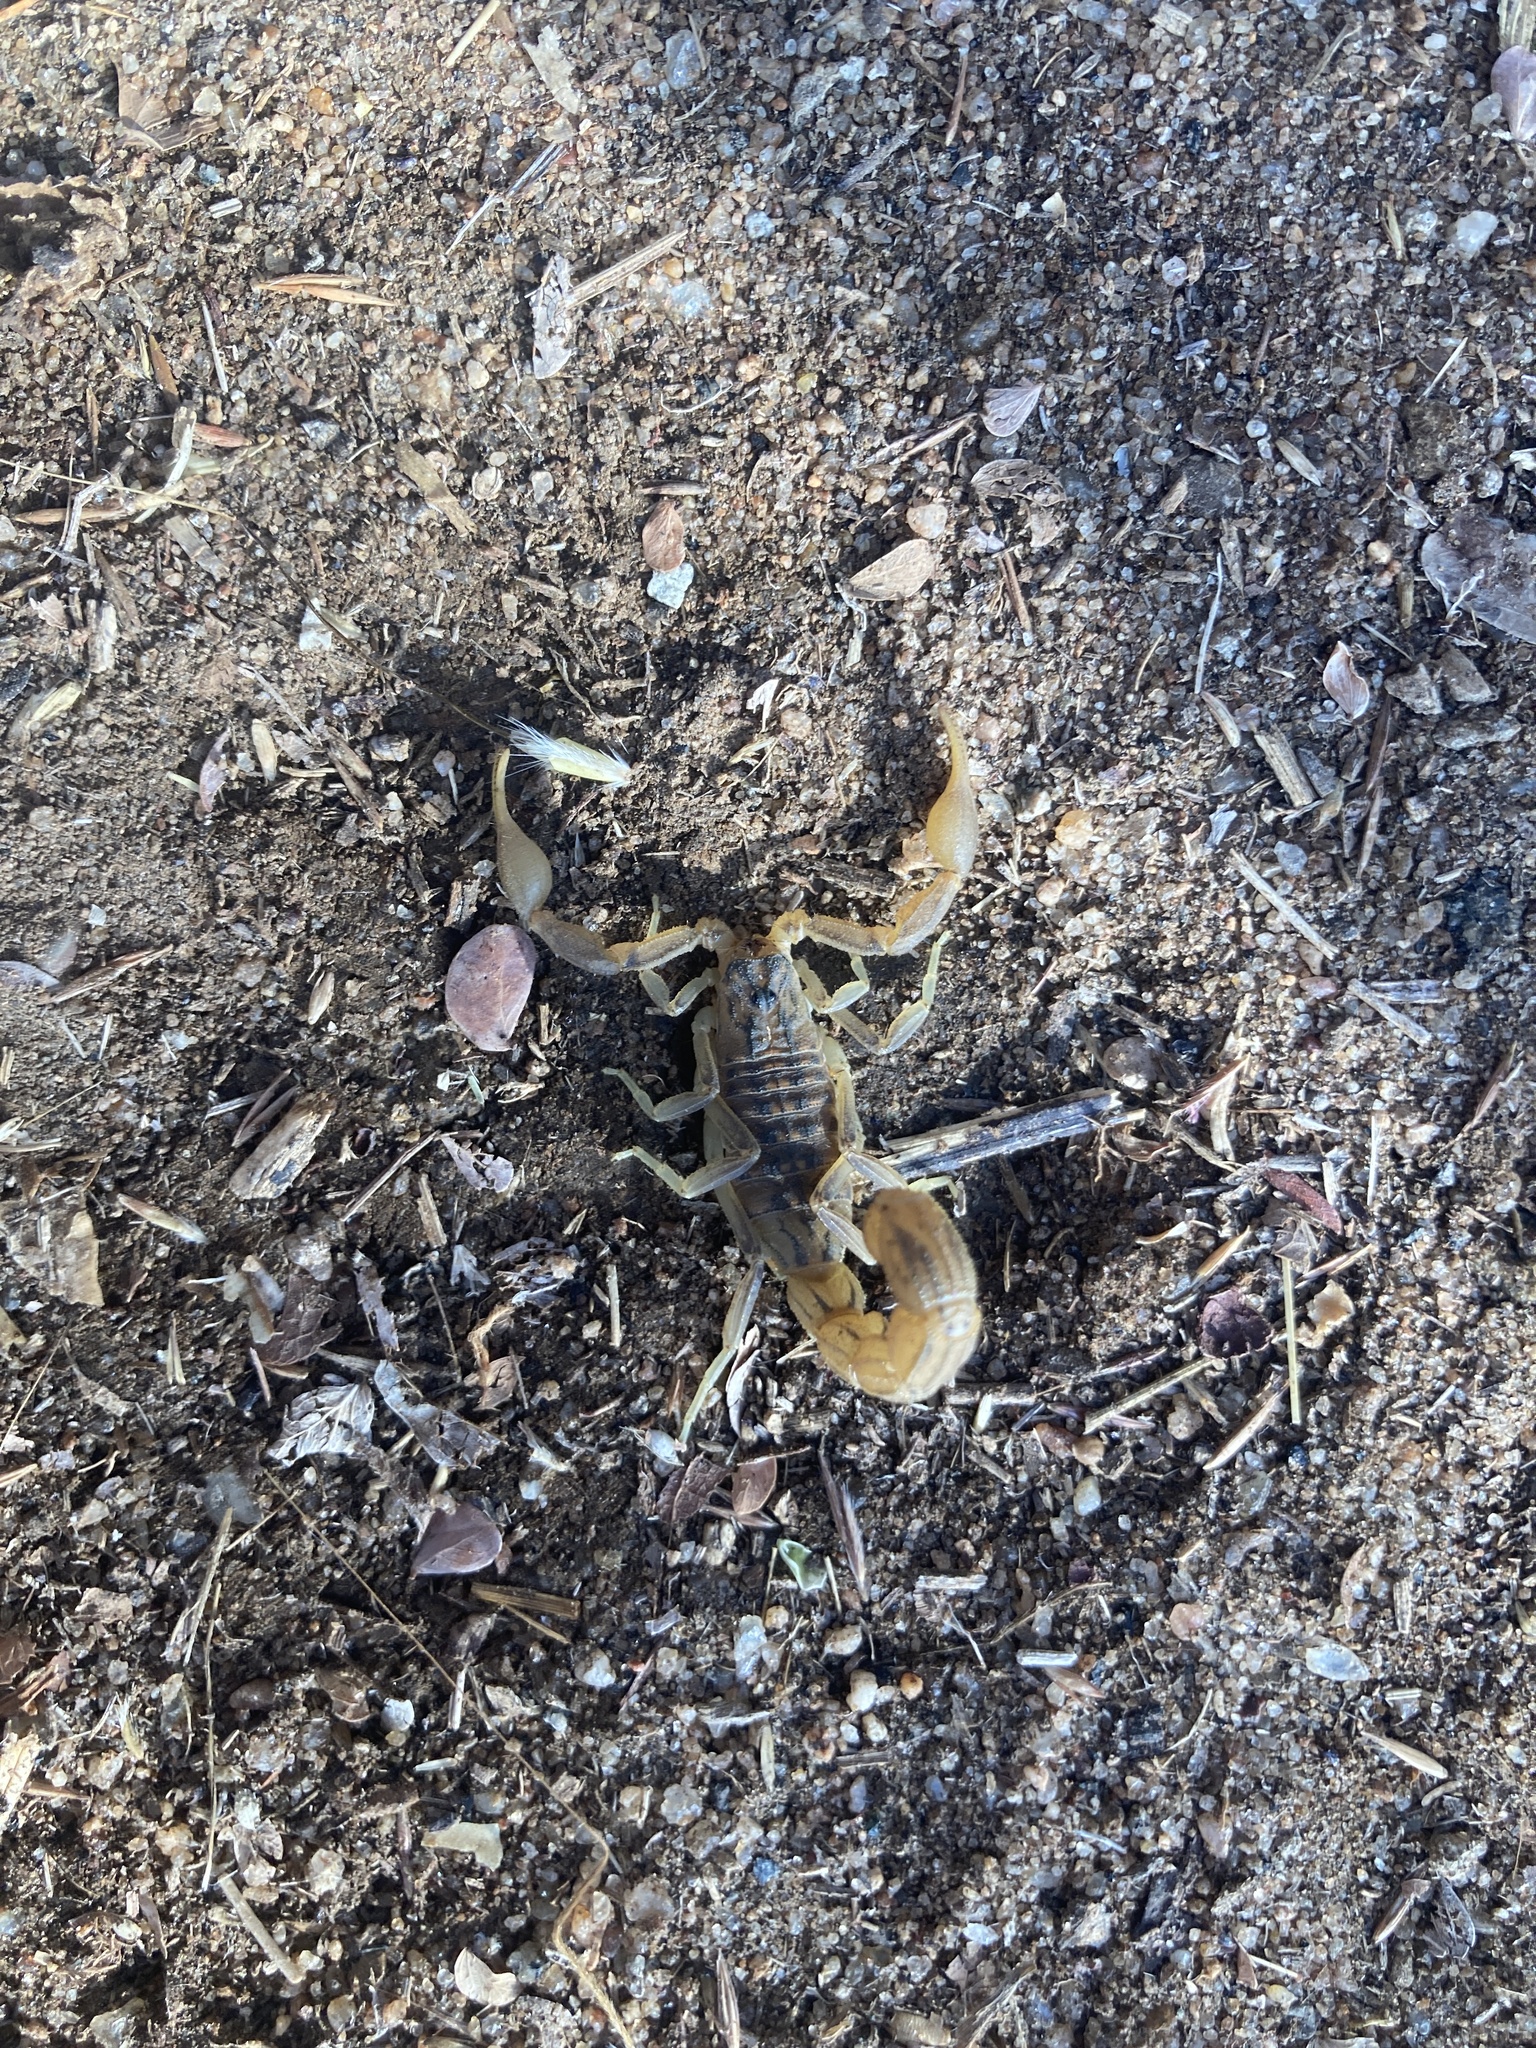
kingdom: Animalia
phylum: Arthropoda
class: Arachnida
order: Scorpiones
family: Buthidae
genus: Hottentotta
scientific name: Hottentotta
